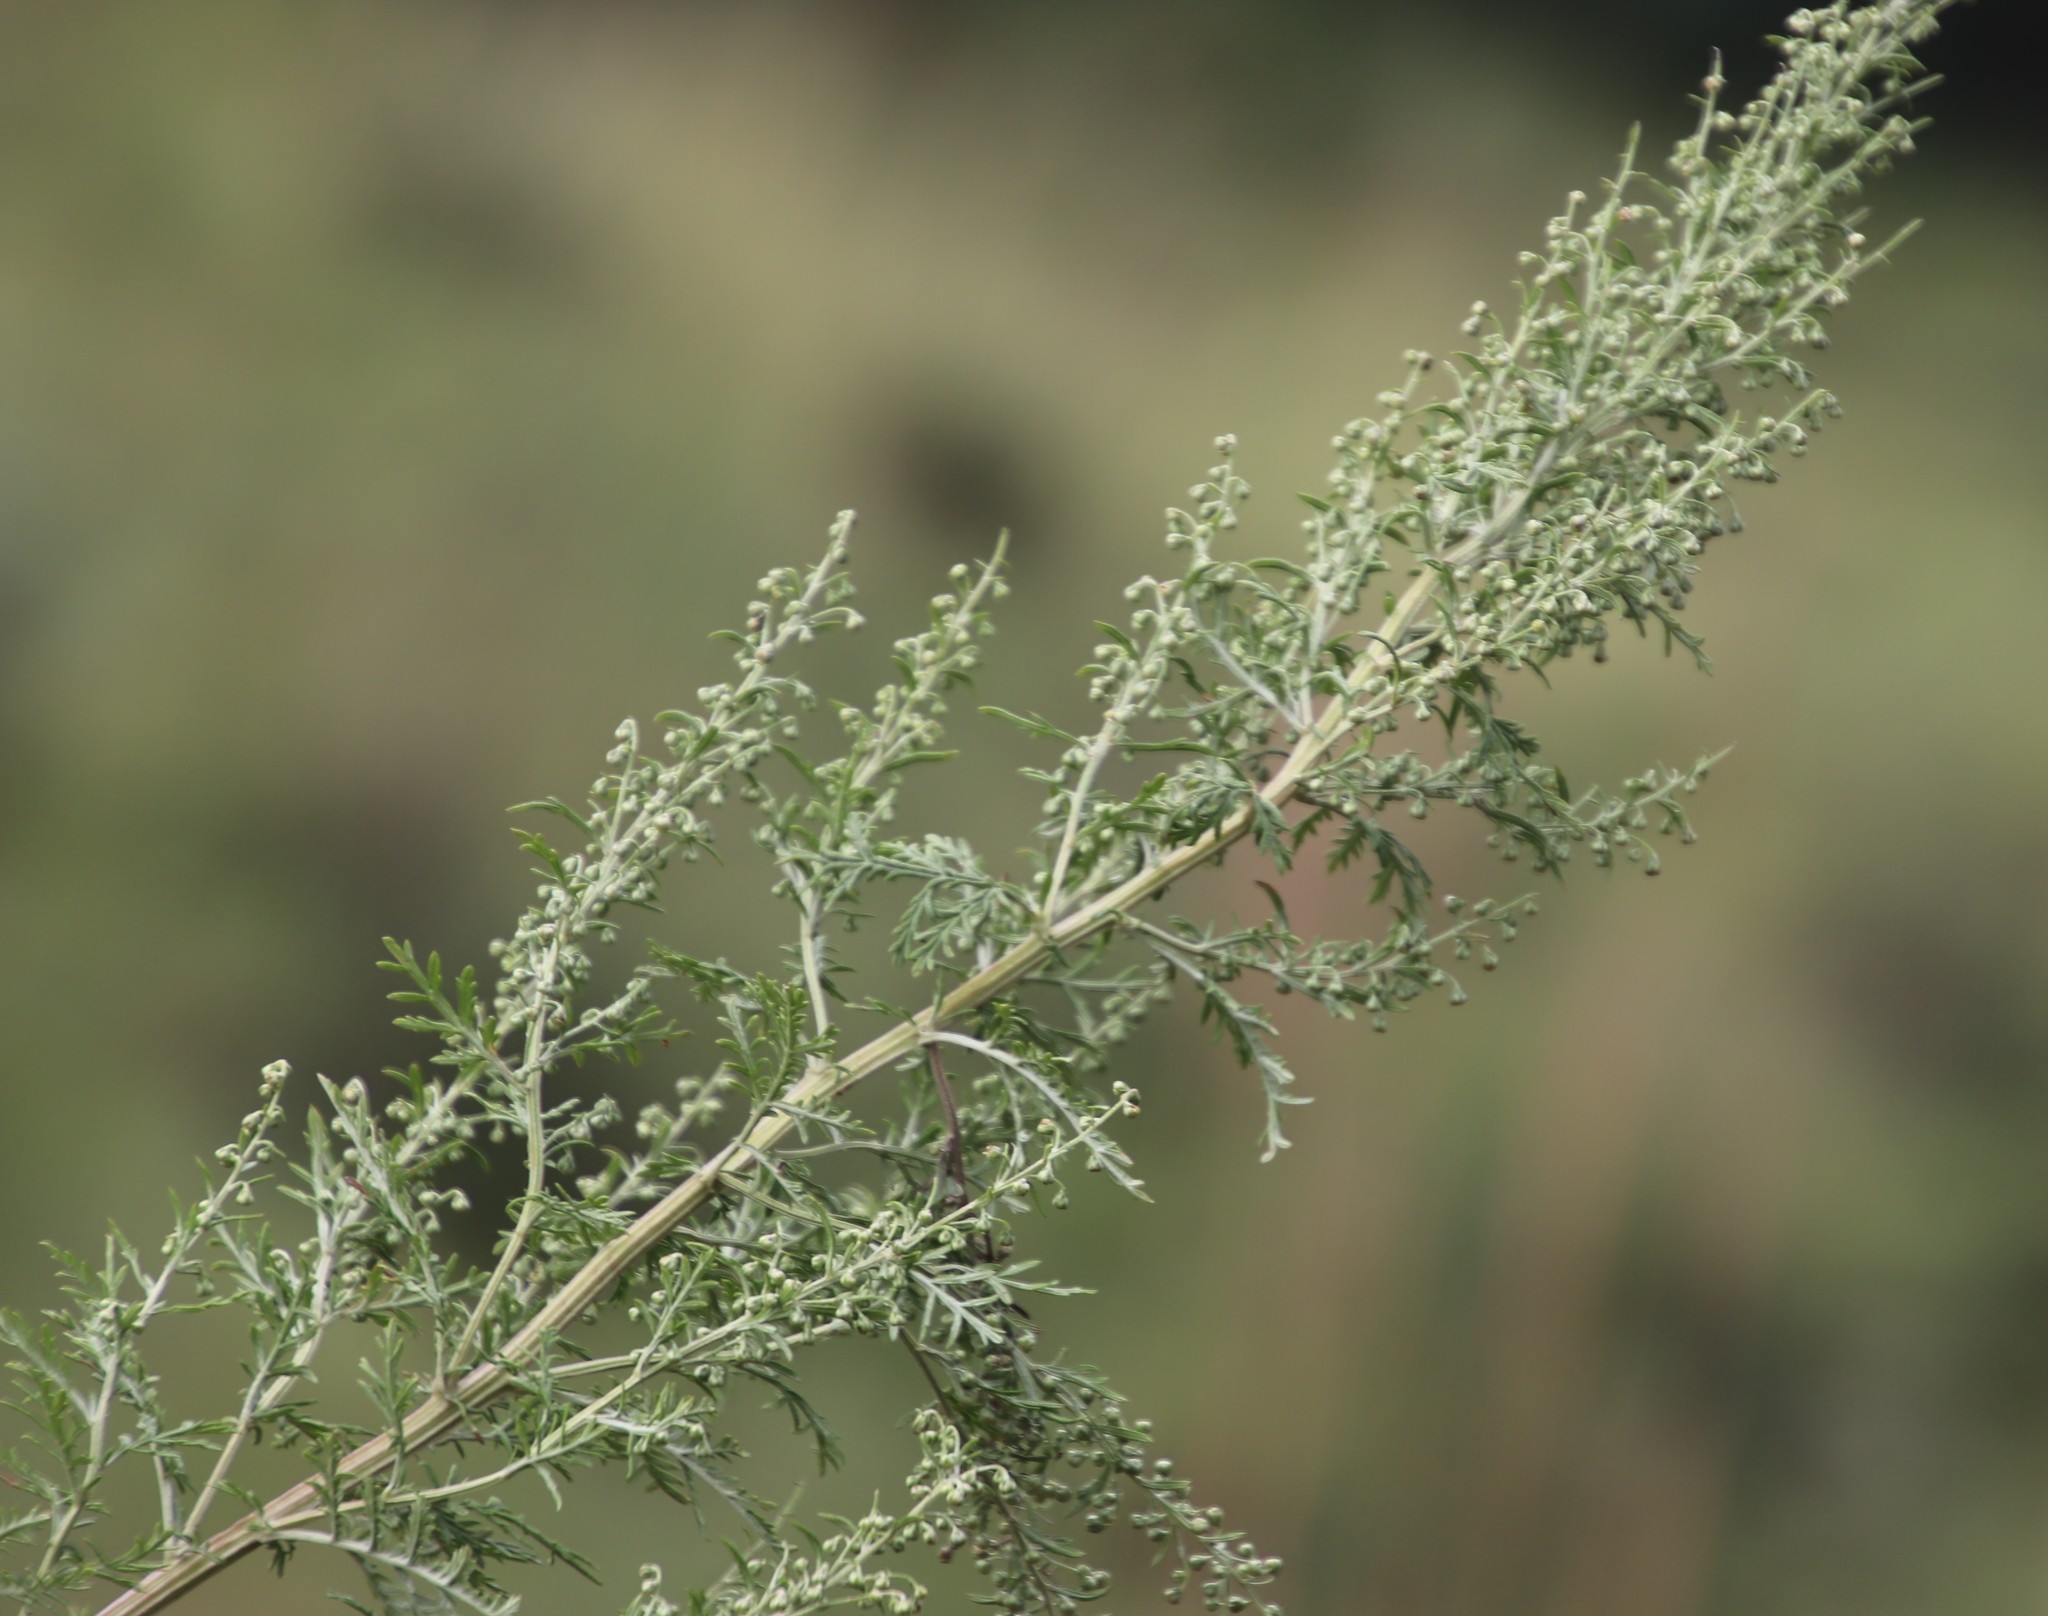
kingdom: Plantae
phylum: Tracheophyta
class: Magnoliopsida
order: Asterales
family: Asteraceae
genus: Artemisia
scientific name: Artemisia afra
